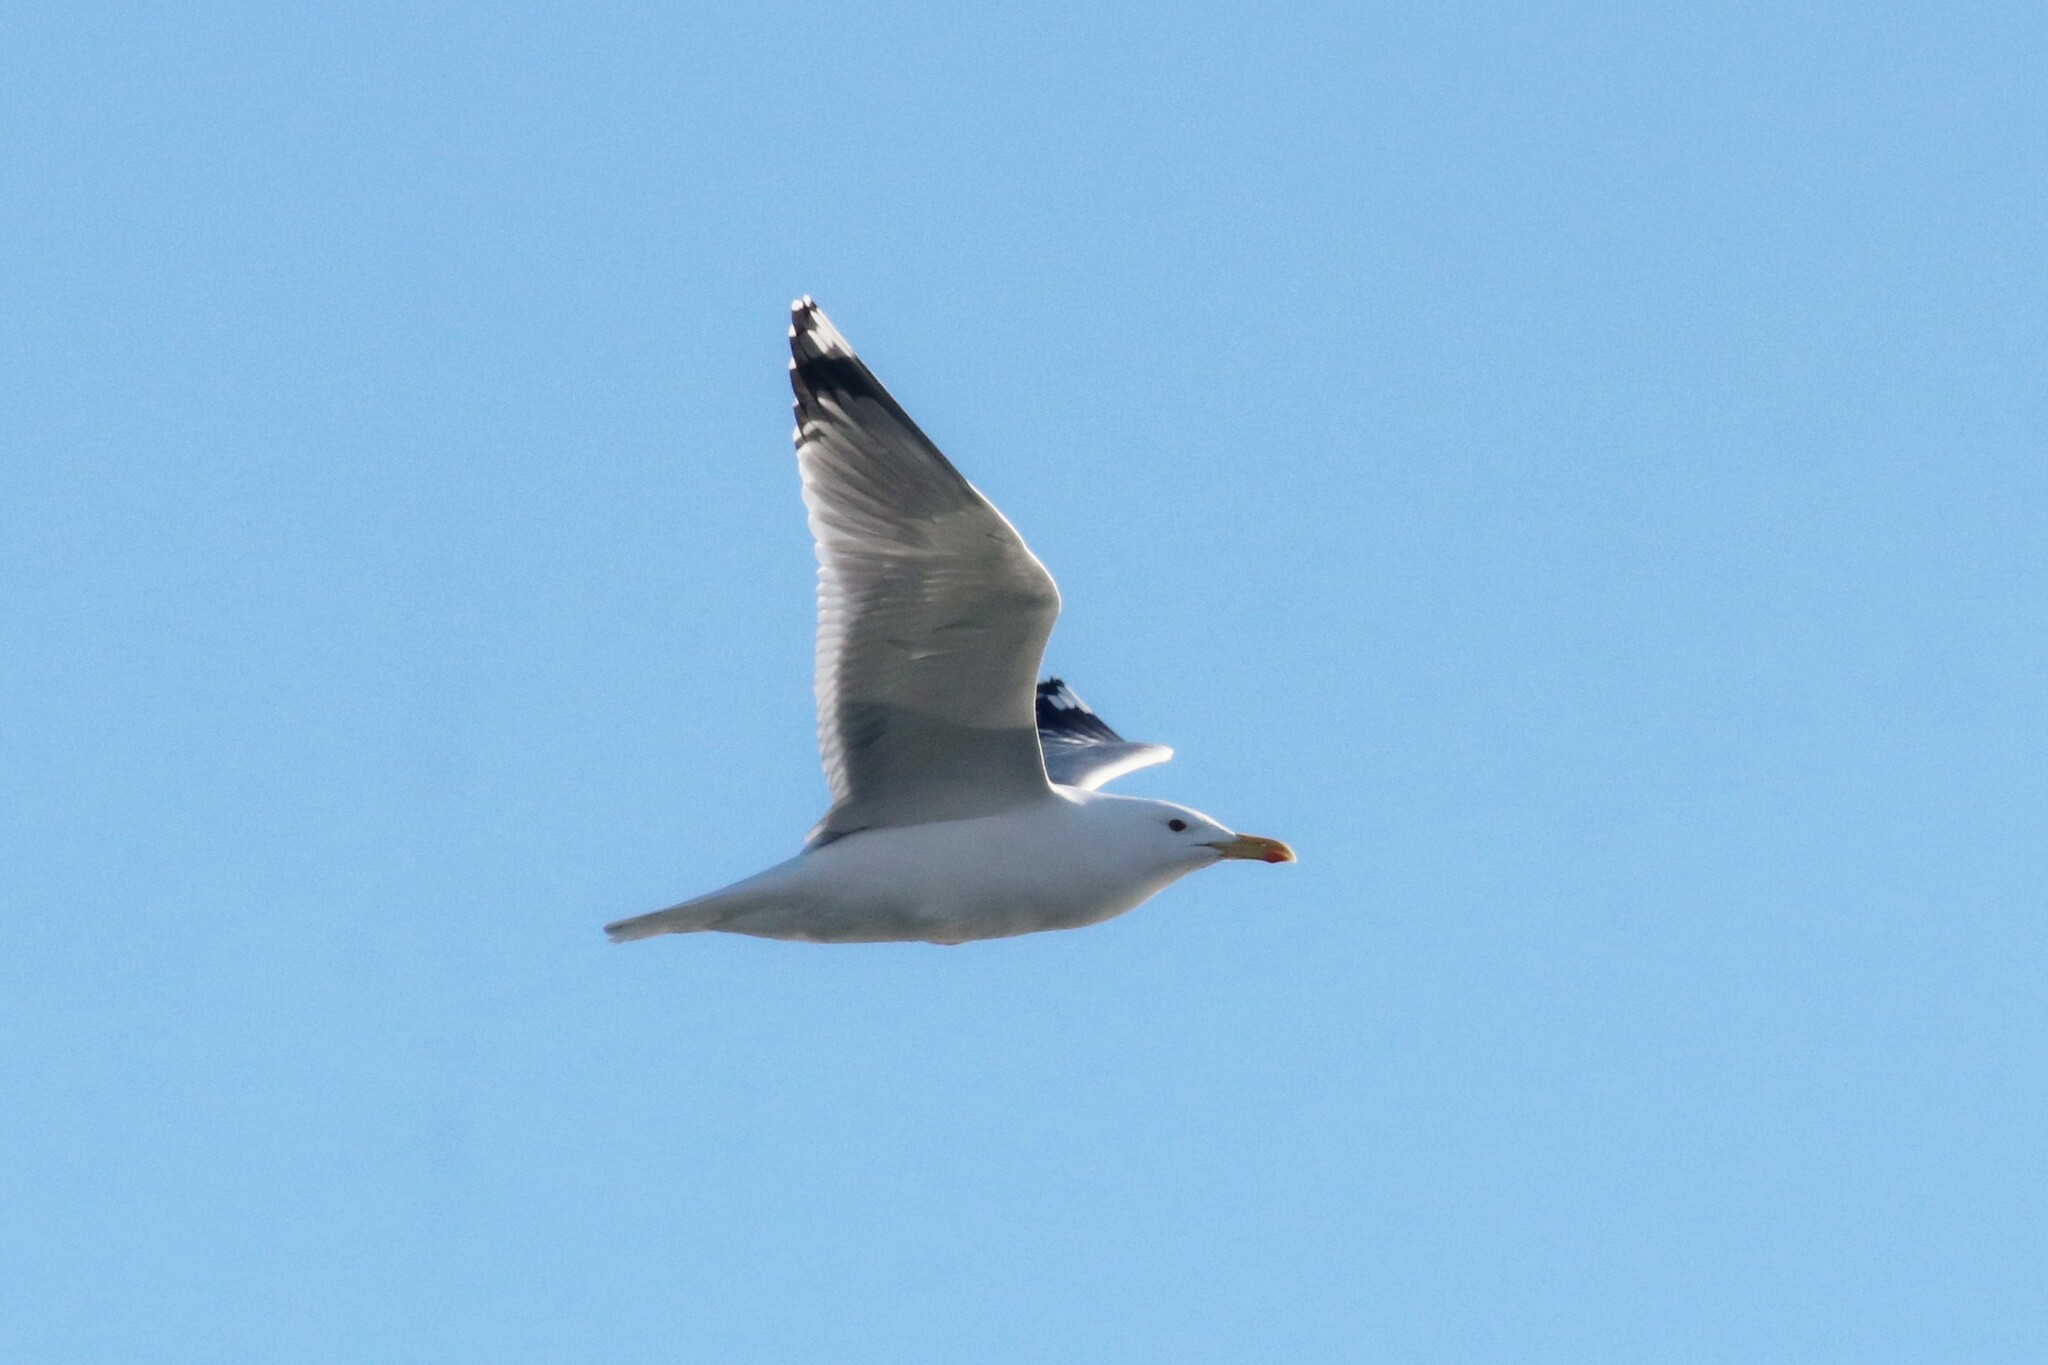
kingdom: Animalia
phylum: Chordata
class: Aves
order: Charadriiformes
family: Laridae
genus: Larus
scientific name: Larus cachinnans
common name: Caspian gull
